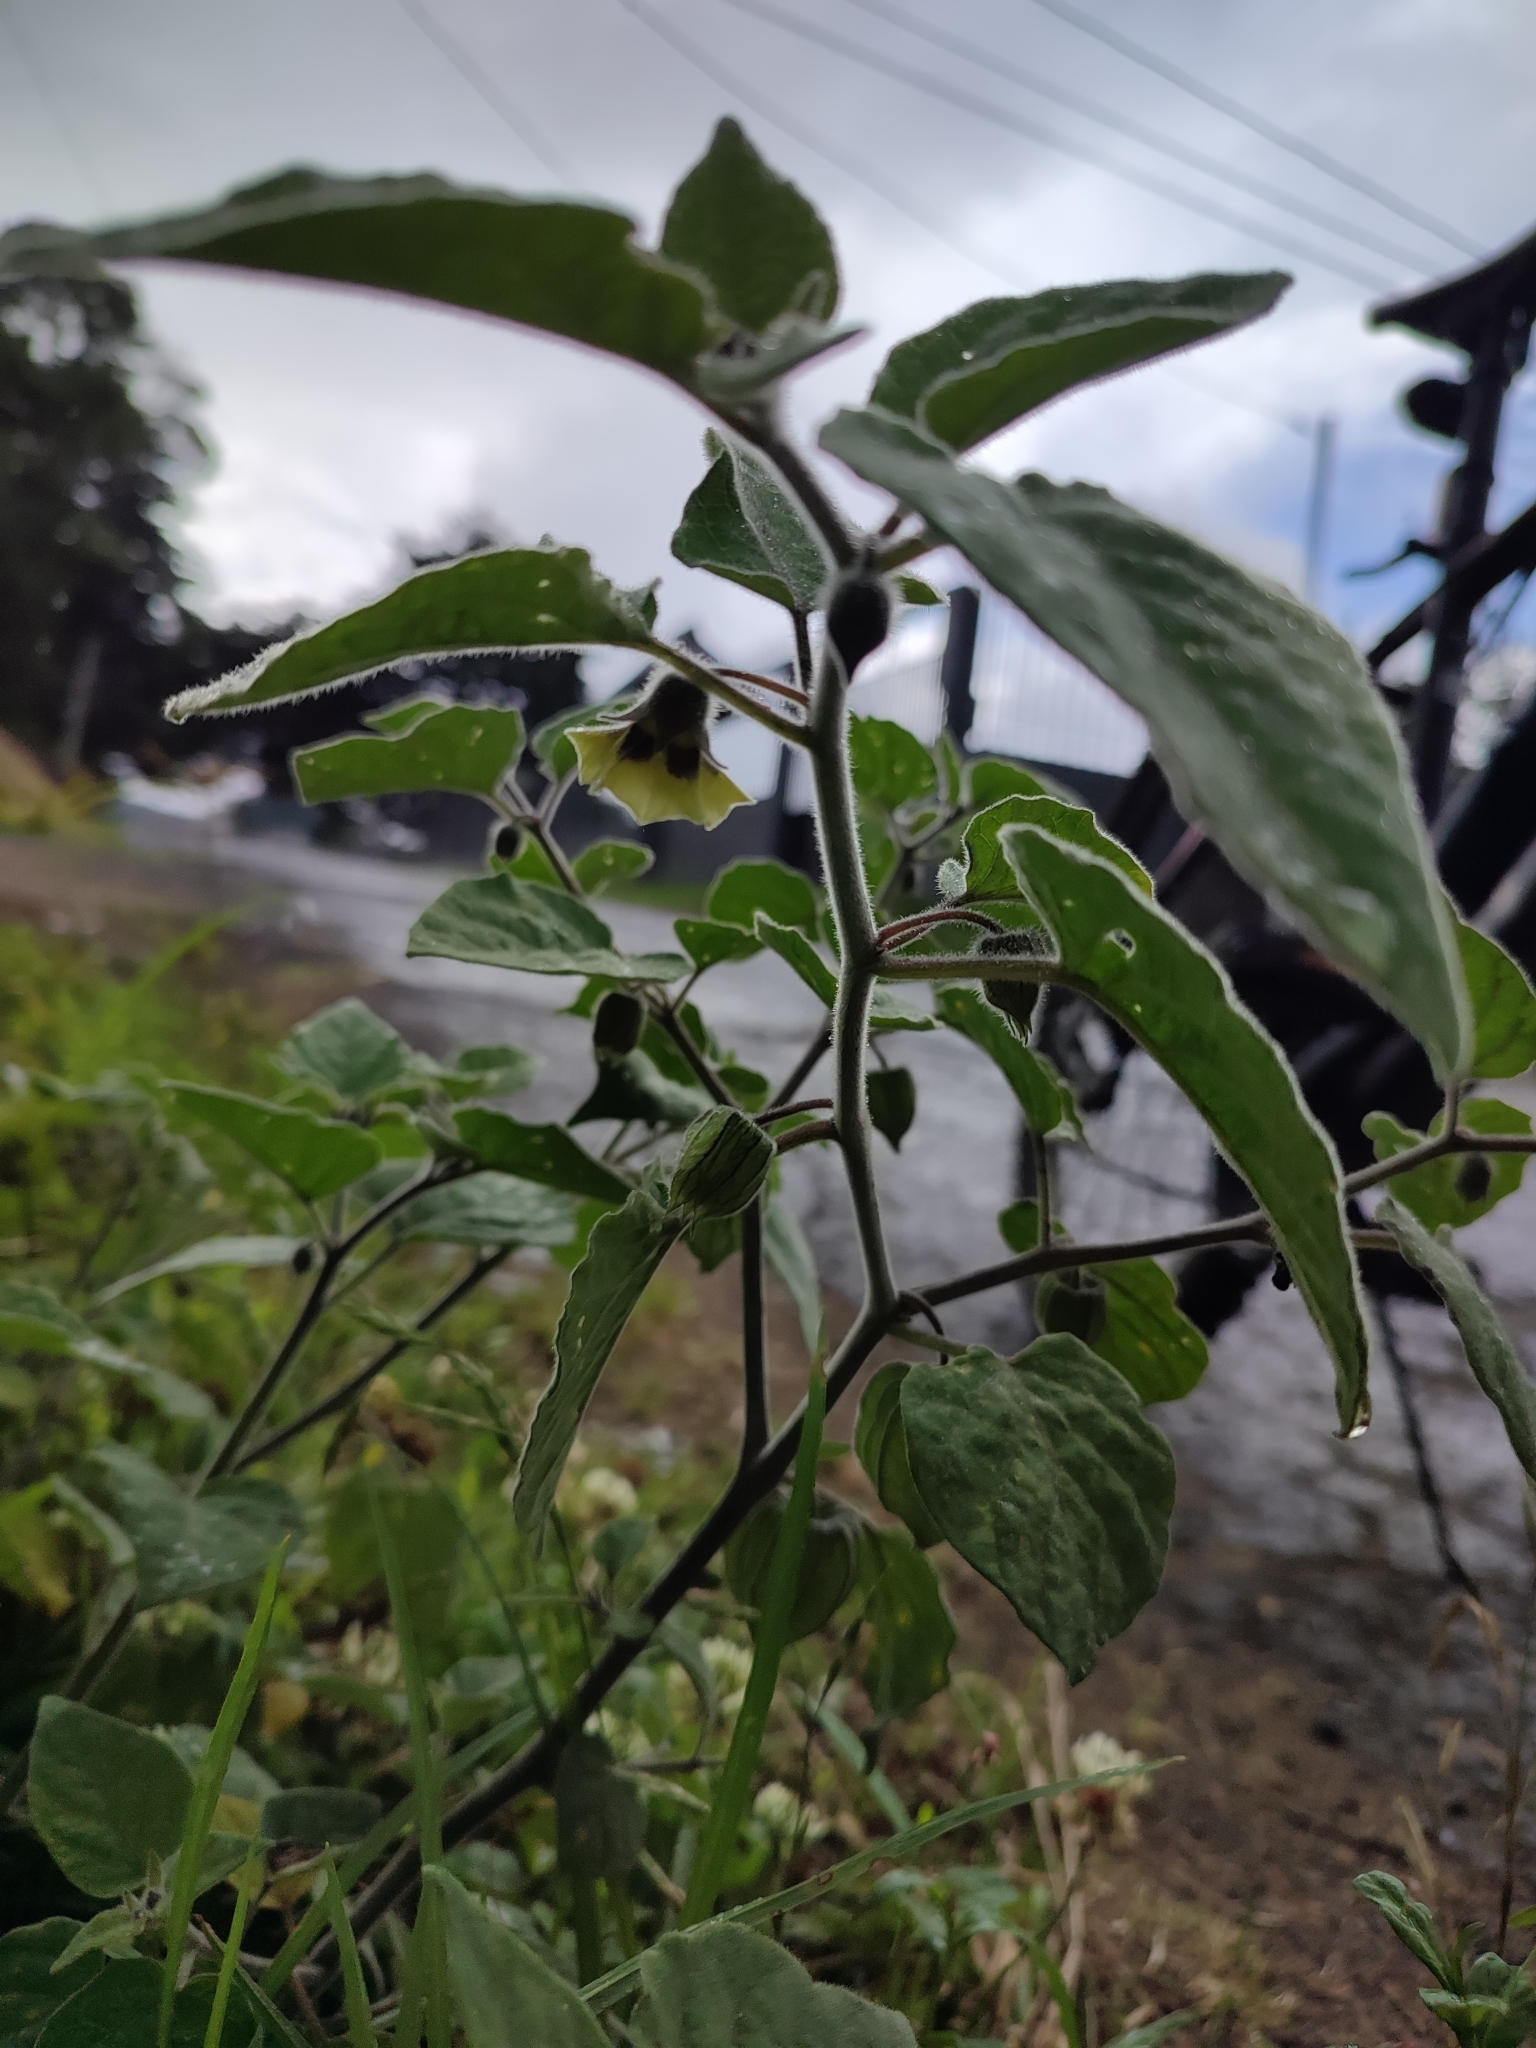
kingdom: Plantae
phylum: Tracheophyta
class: Magnoliopsida
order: Solanales
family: Solanaceae
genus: Physalis
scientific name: Physalis peruviana
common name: Cape-gooseberry
